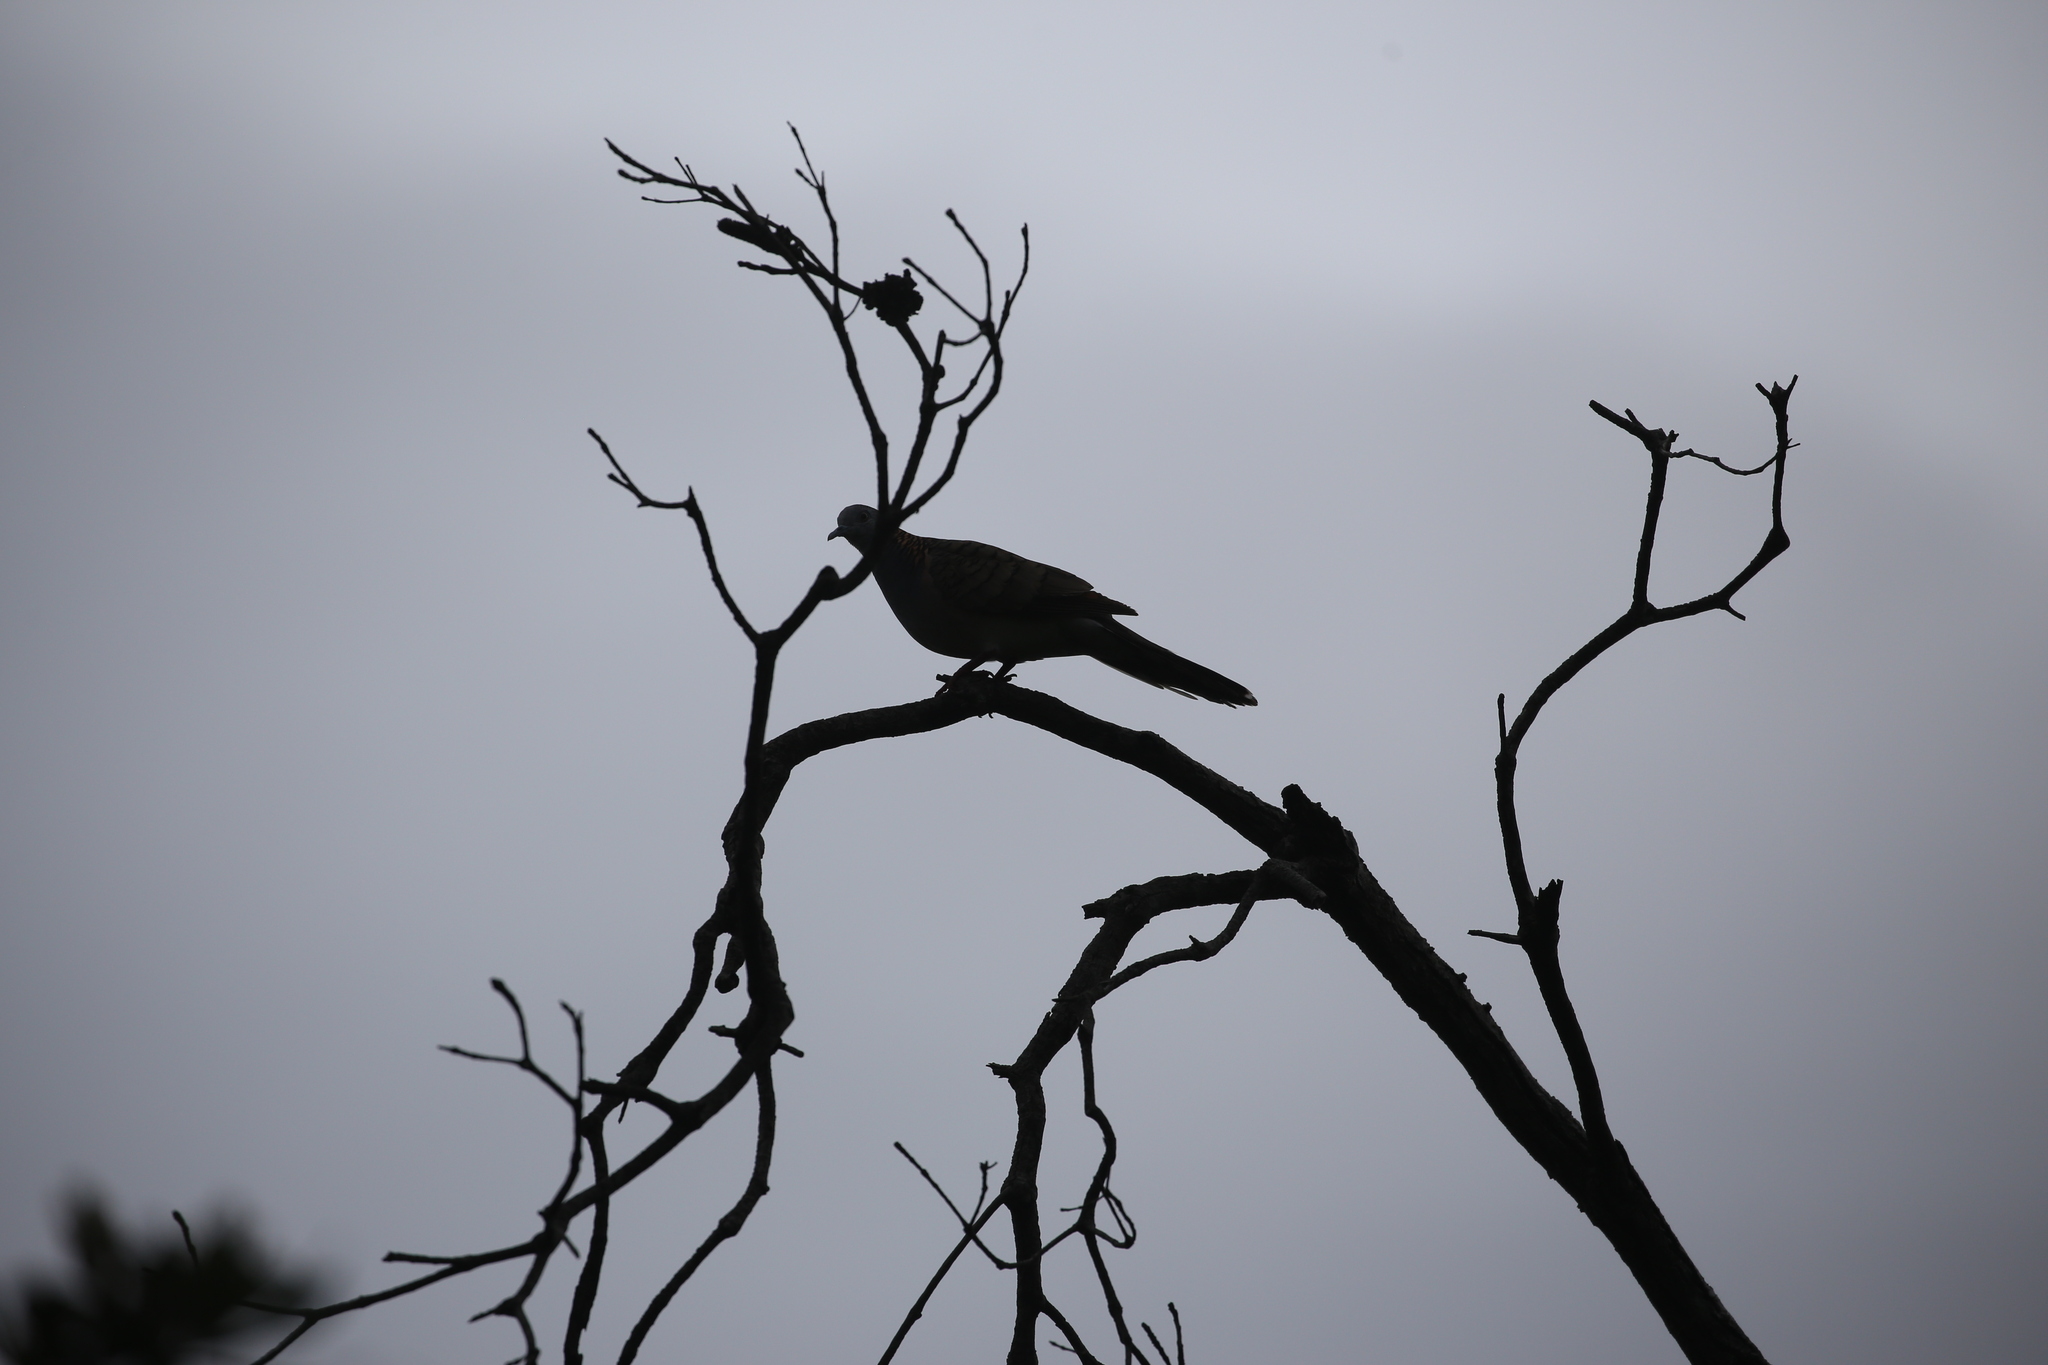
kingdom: Animalia
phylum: Chordata
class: Aves
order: Columbiformes
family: Columbidae
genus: Geopelia
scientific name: Geopelia humeralis
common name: Bar-shouldered dove
